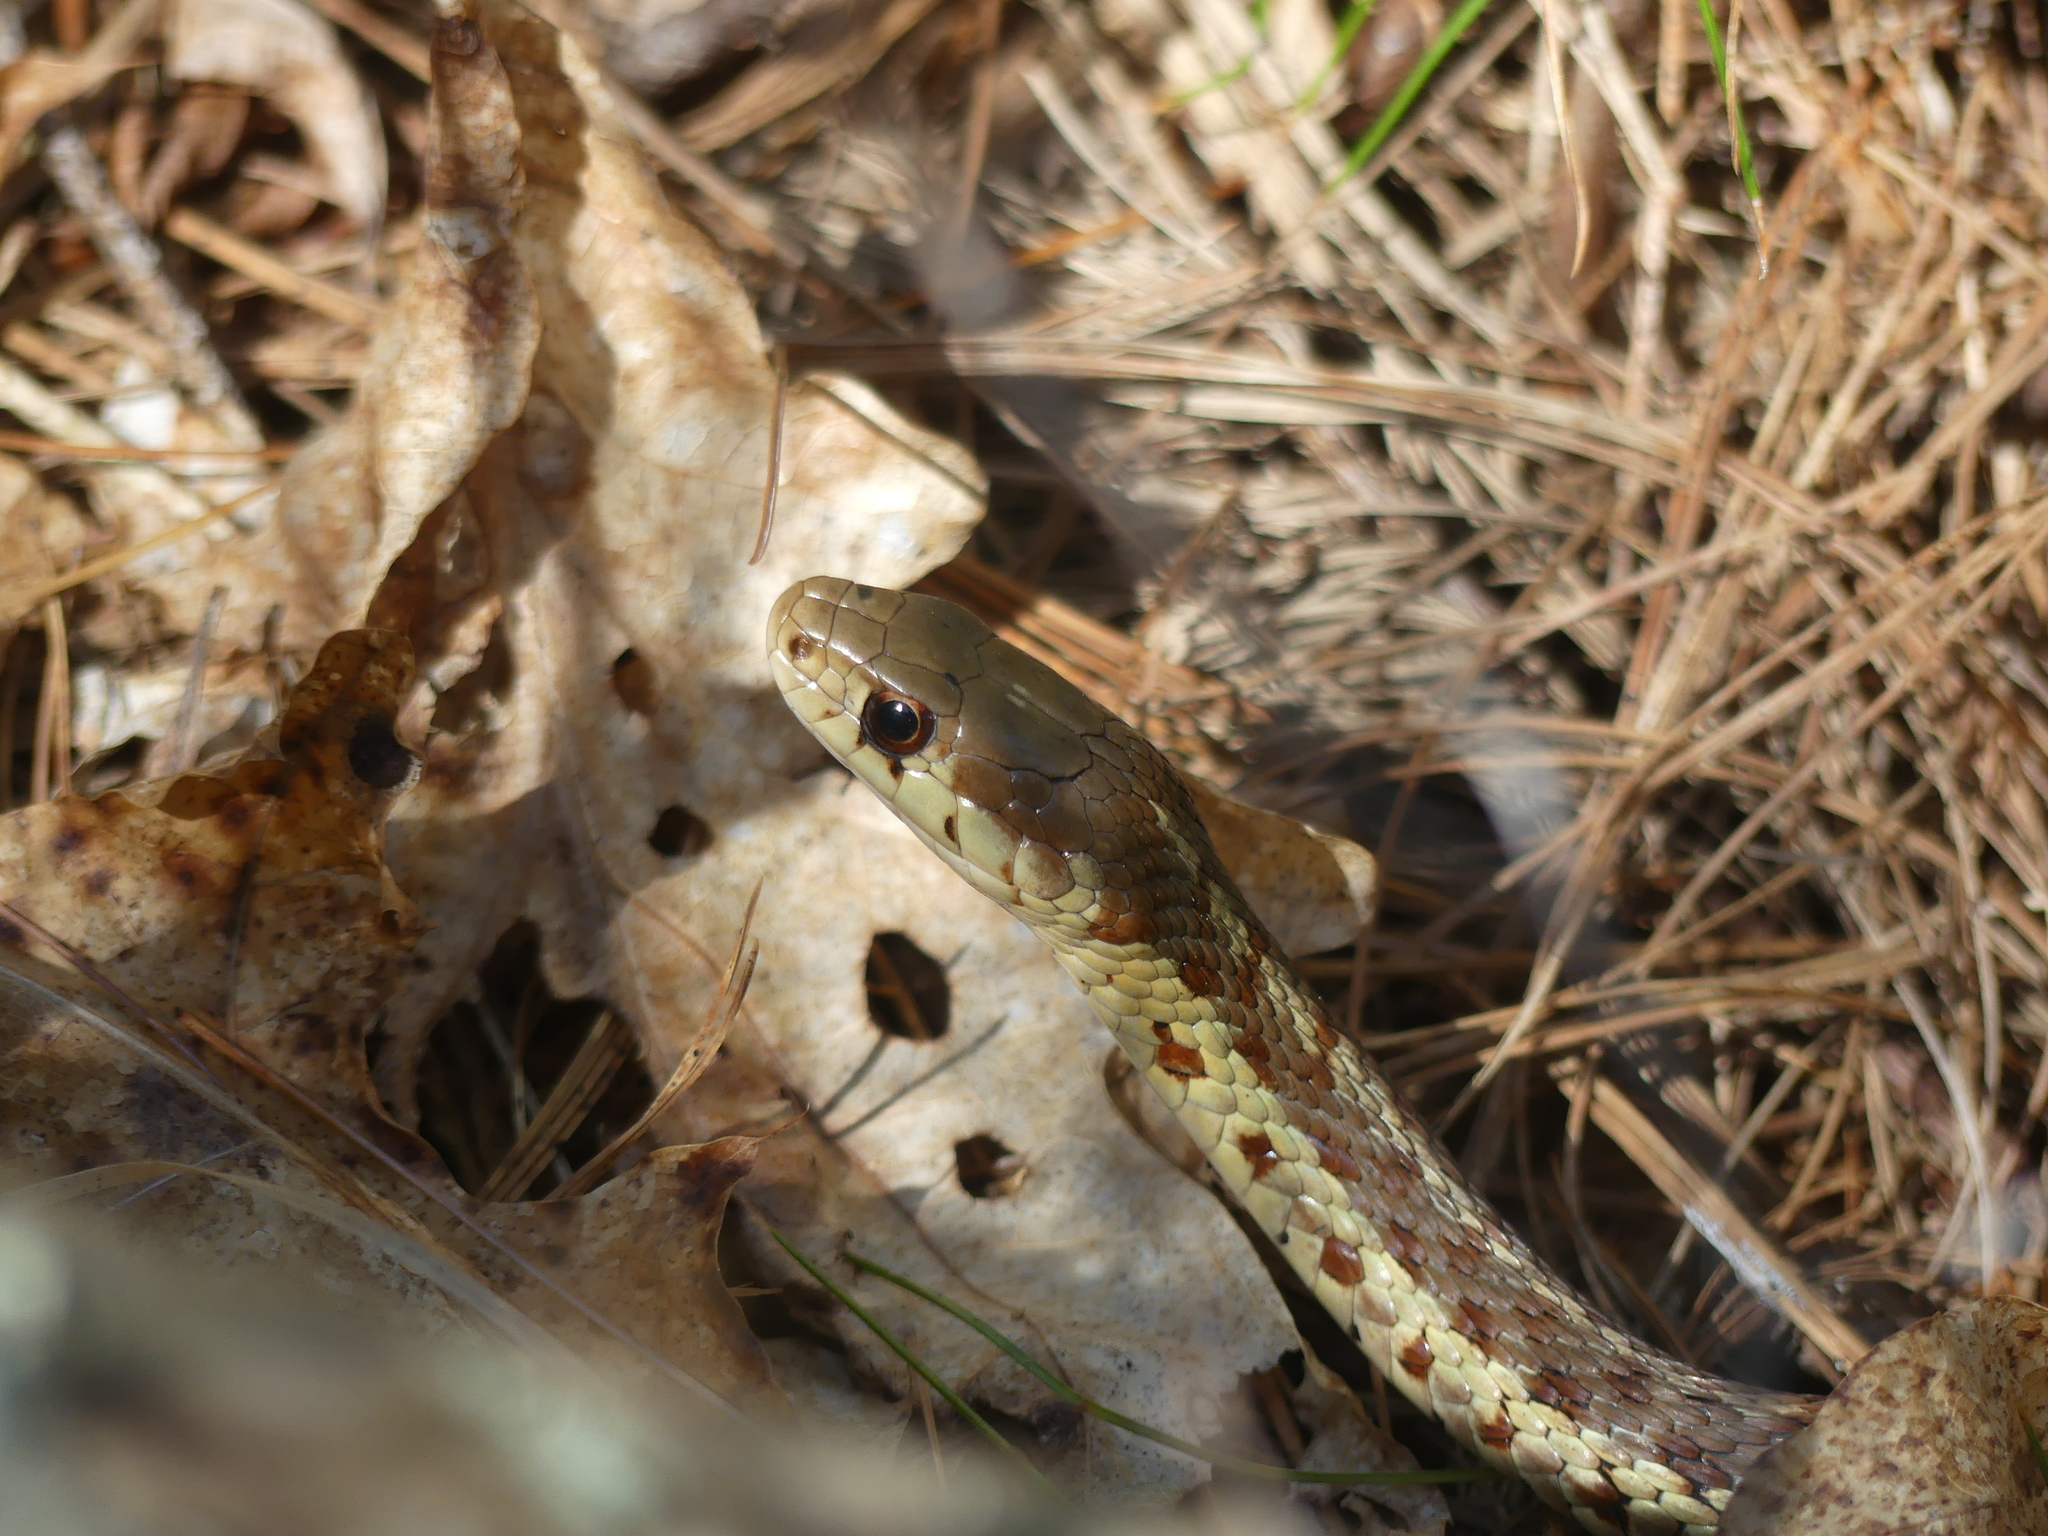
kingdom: Animalia
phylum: Chordata
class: Squamata
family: Colubridae
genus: Thamnophis
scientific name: Thamnophis sirtalis
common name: Common garter snake
